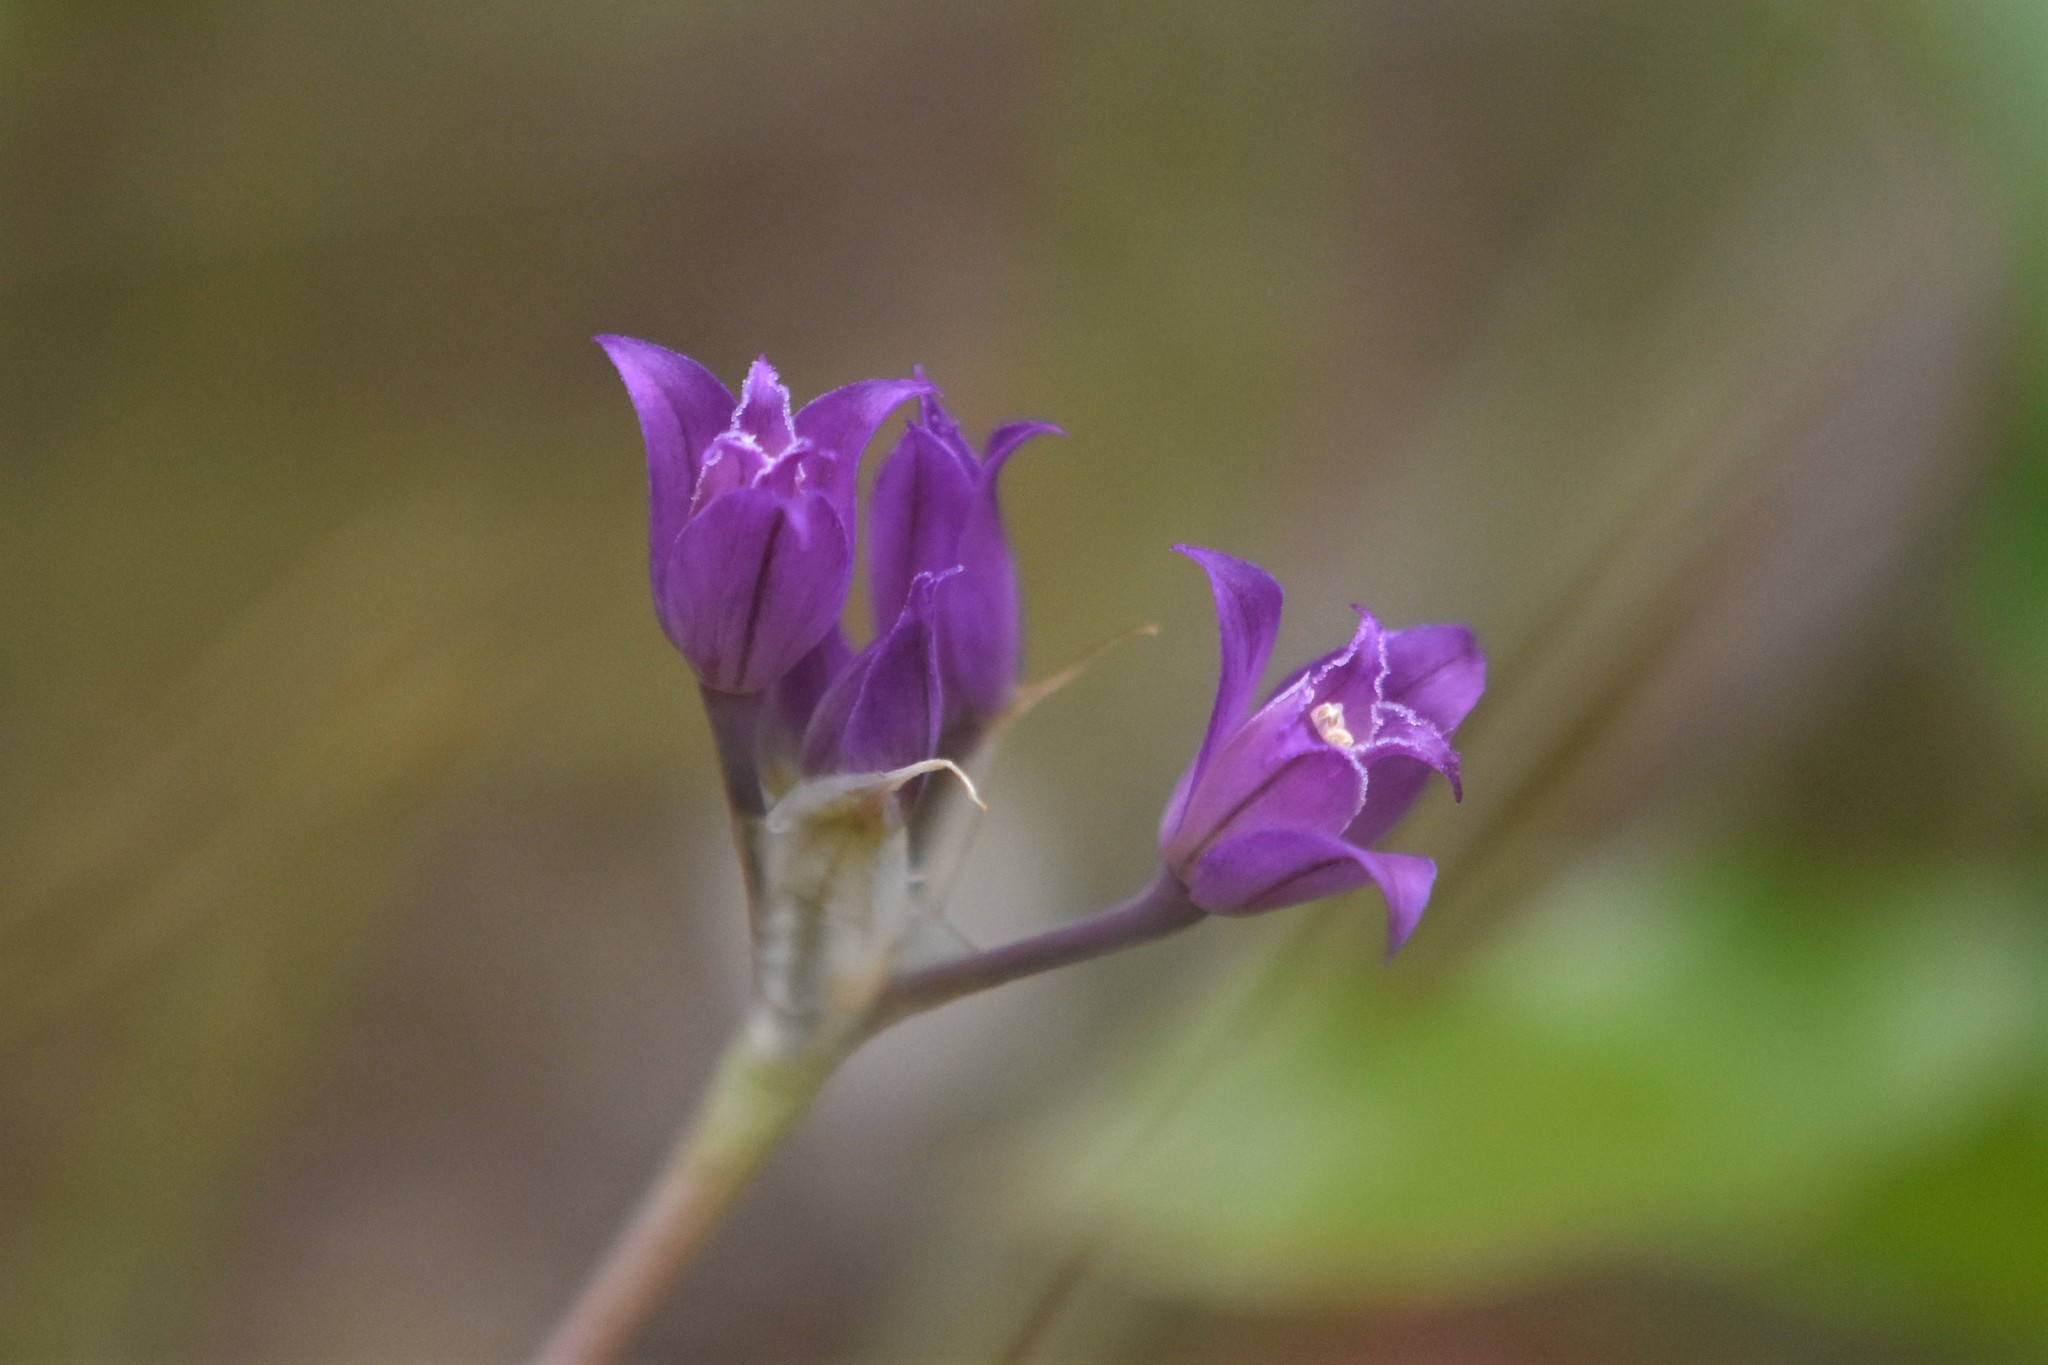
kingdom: Plantae
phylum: Tracheophyta
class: Liliopsida
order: Asparagales
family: Amaryllidaceae
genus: Allium
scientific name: Allium acuminatum
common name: Hooker's onion
